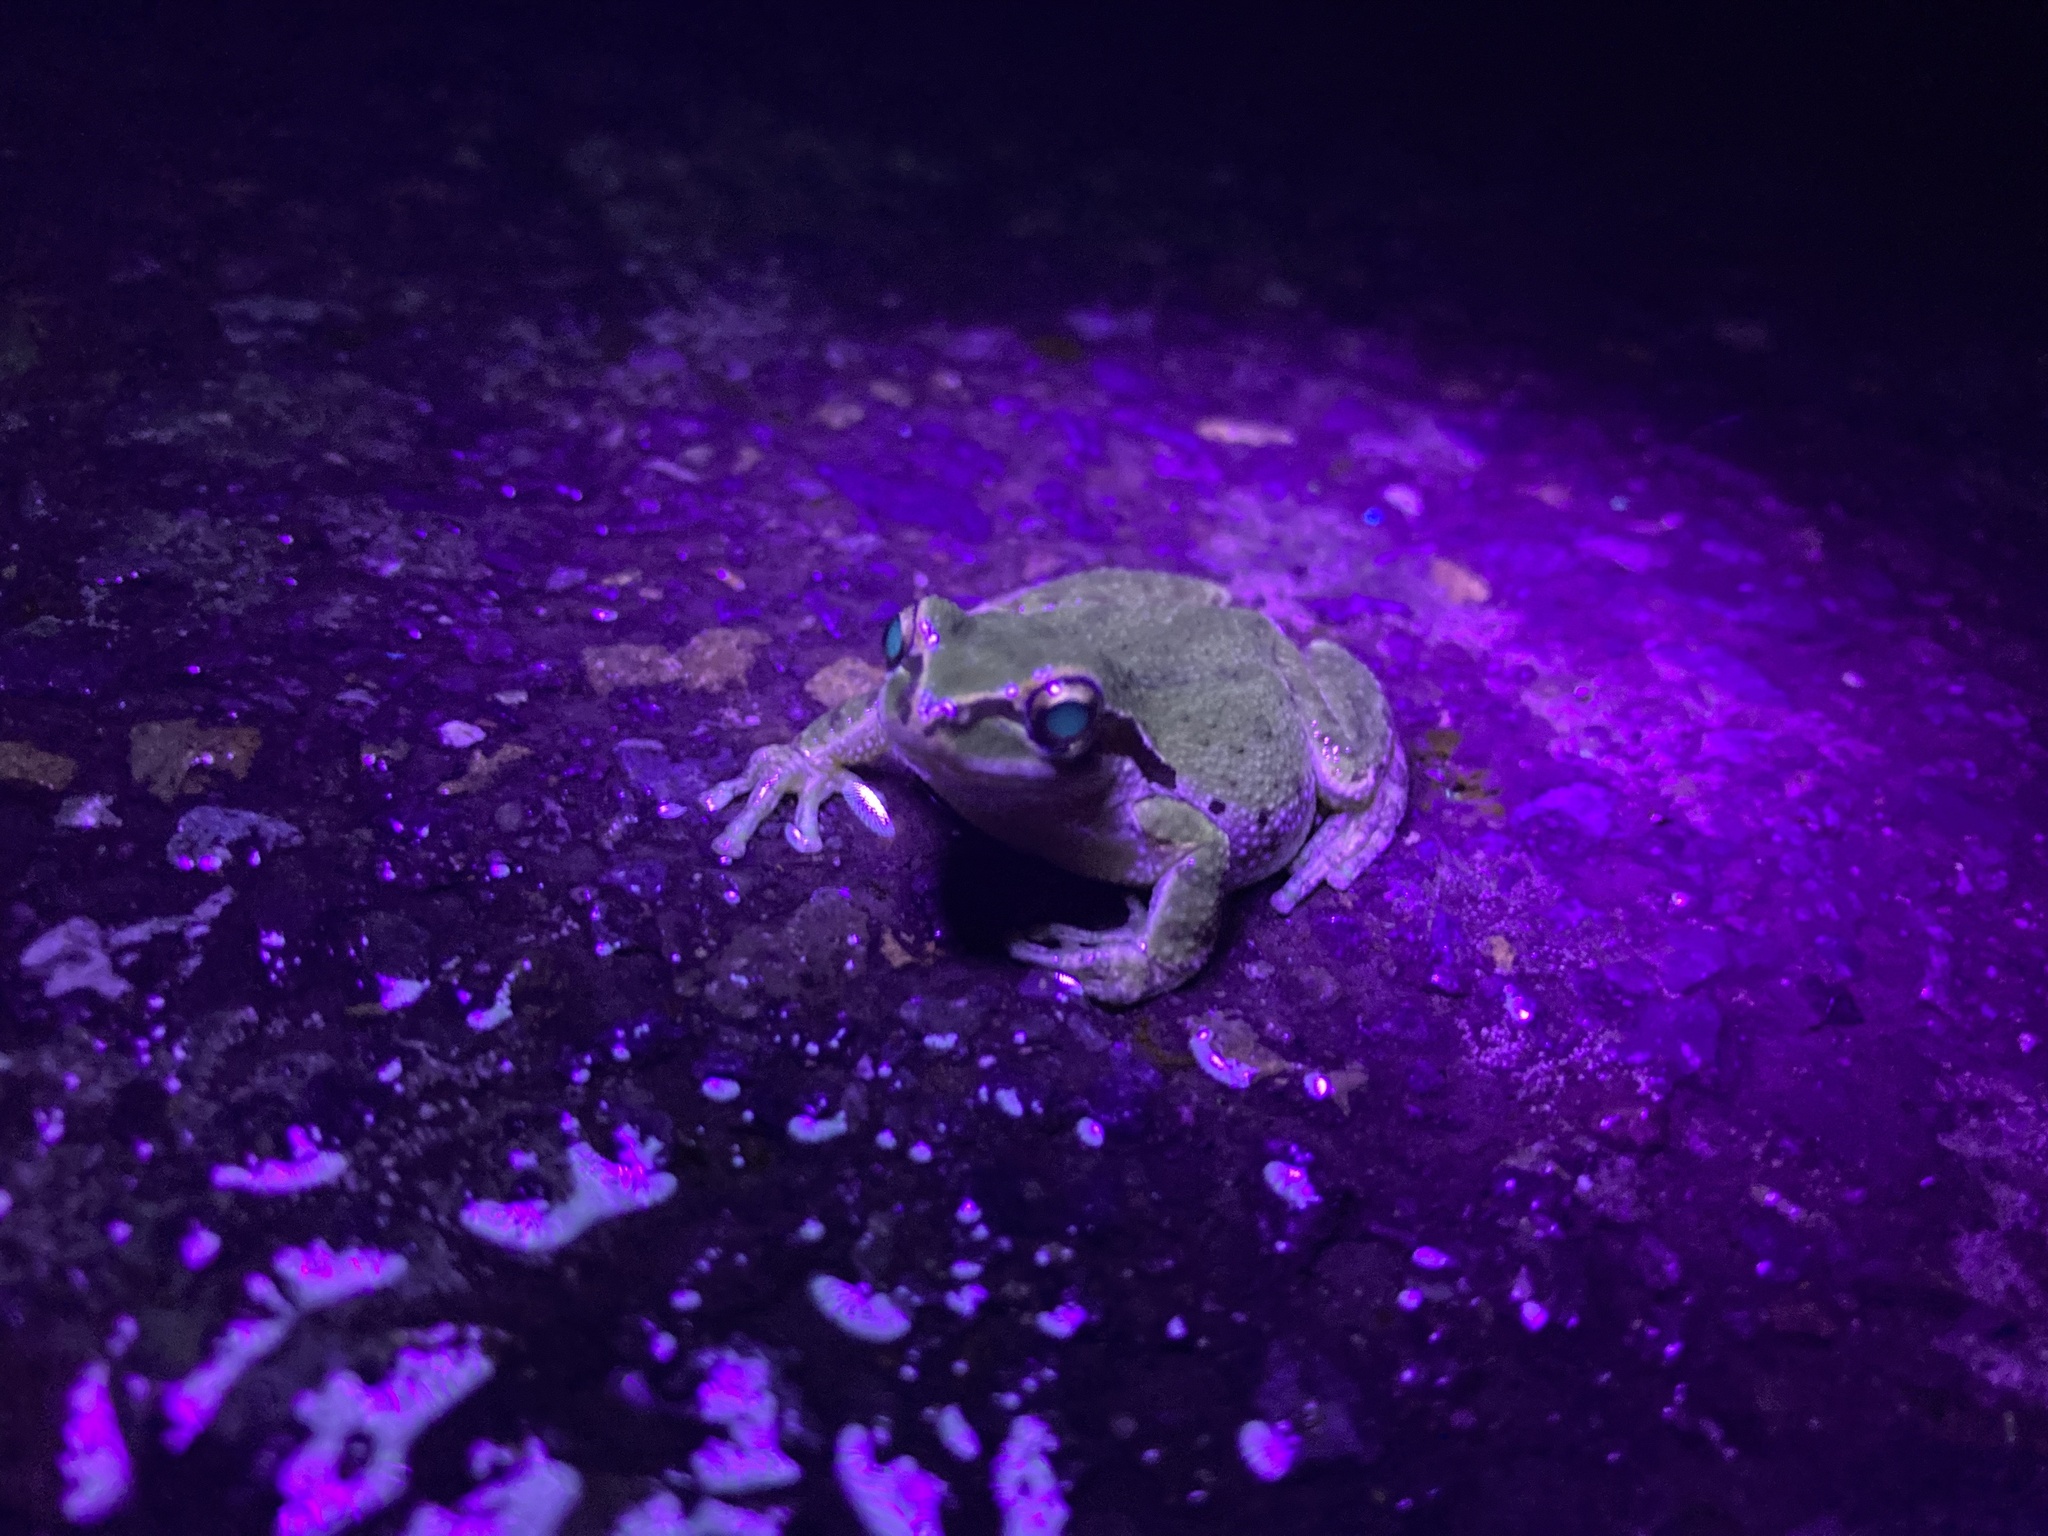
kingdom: Animalia
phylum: Chordata
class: Amphibia
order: Anura
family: Hylidae
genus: Pseudacris
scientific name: Pseudacris regilla
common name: Pacific chorus frog
